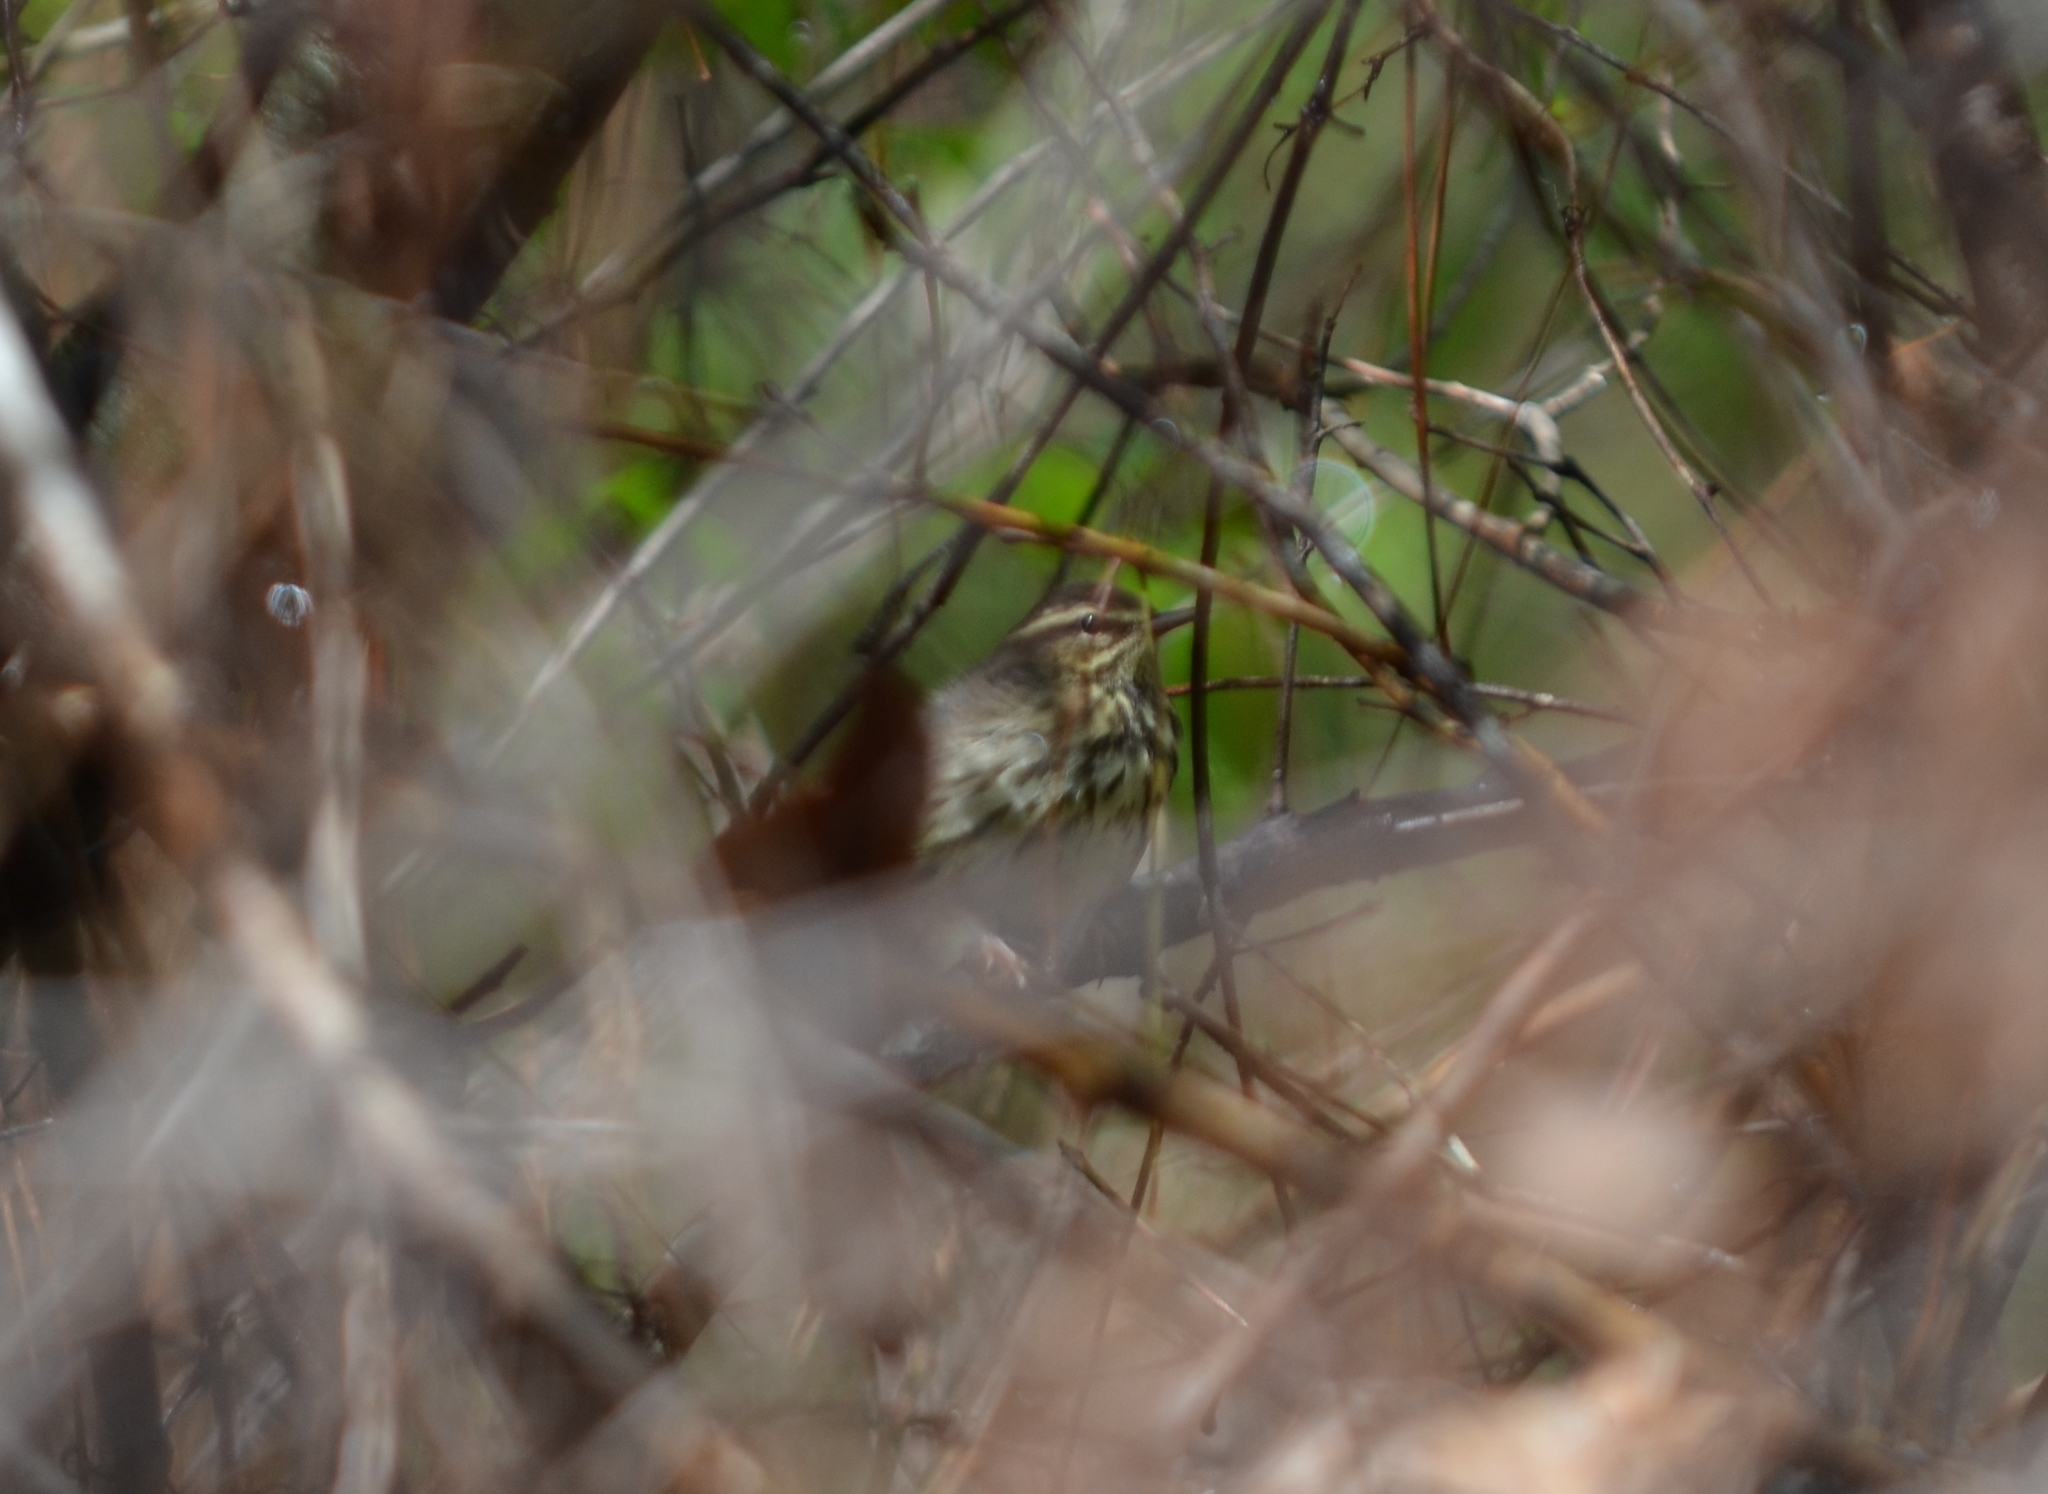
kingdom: Animalia
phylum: Chordata
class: Aves
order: Passeriformes
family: Parulidae
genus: Parkesia
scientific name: Parkesia noveboracensis
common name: Northern waterthrush
